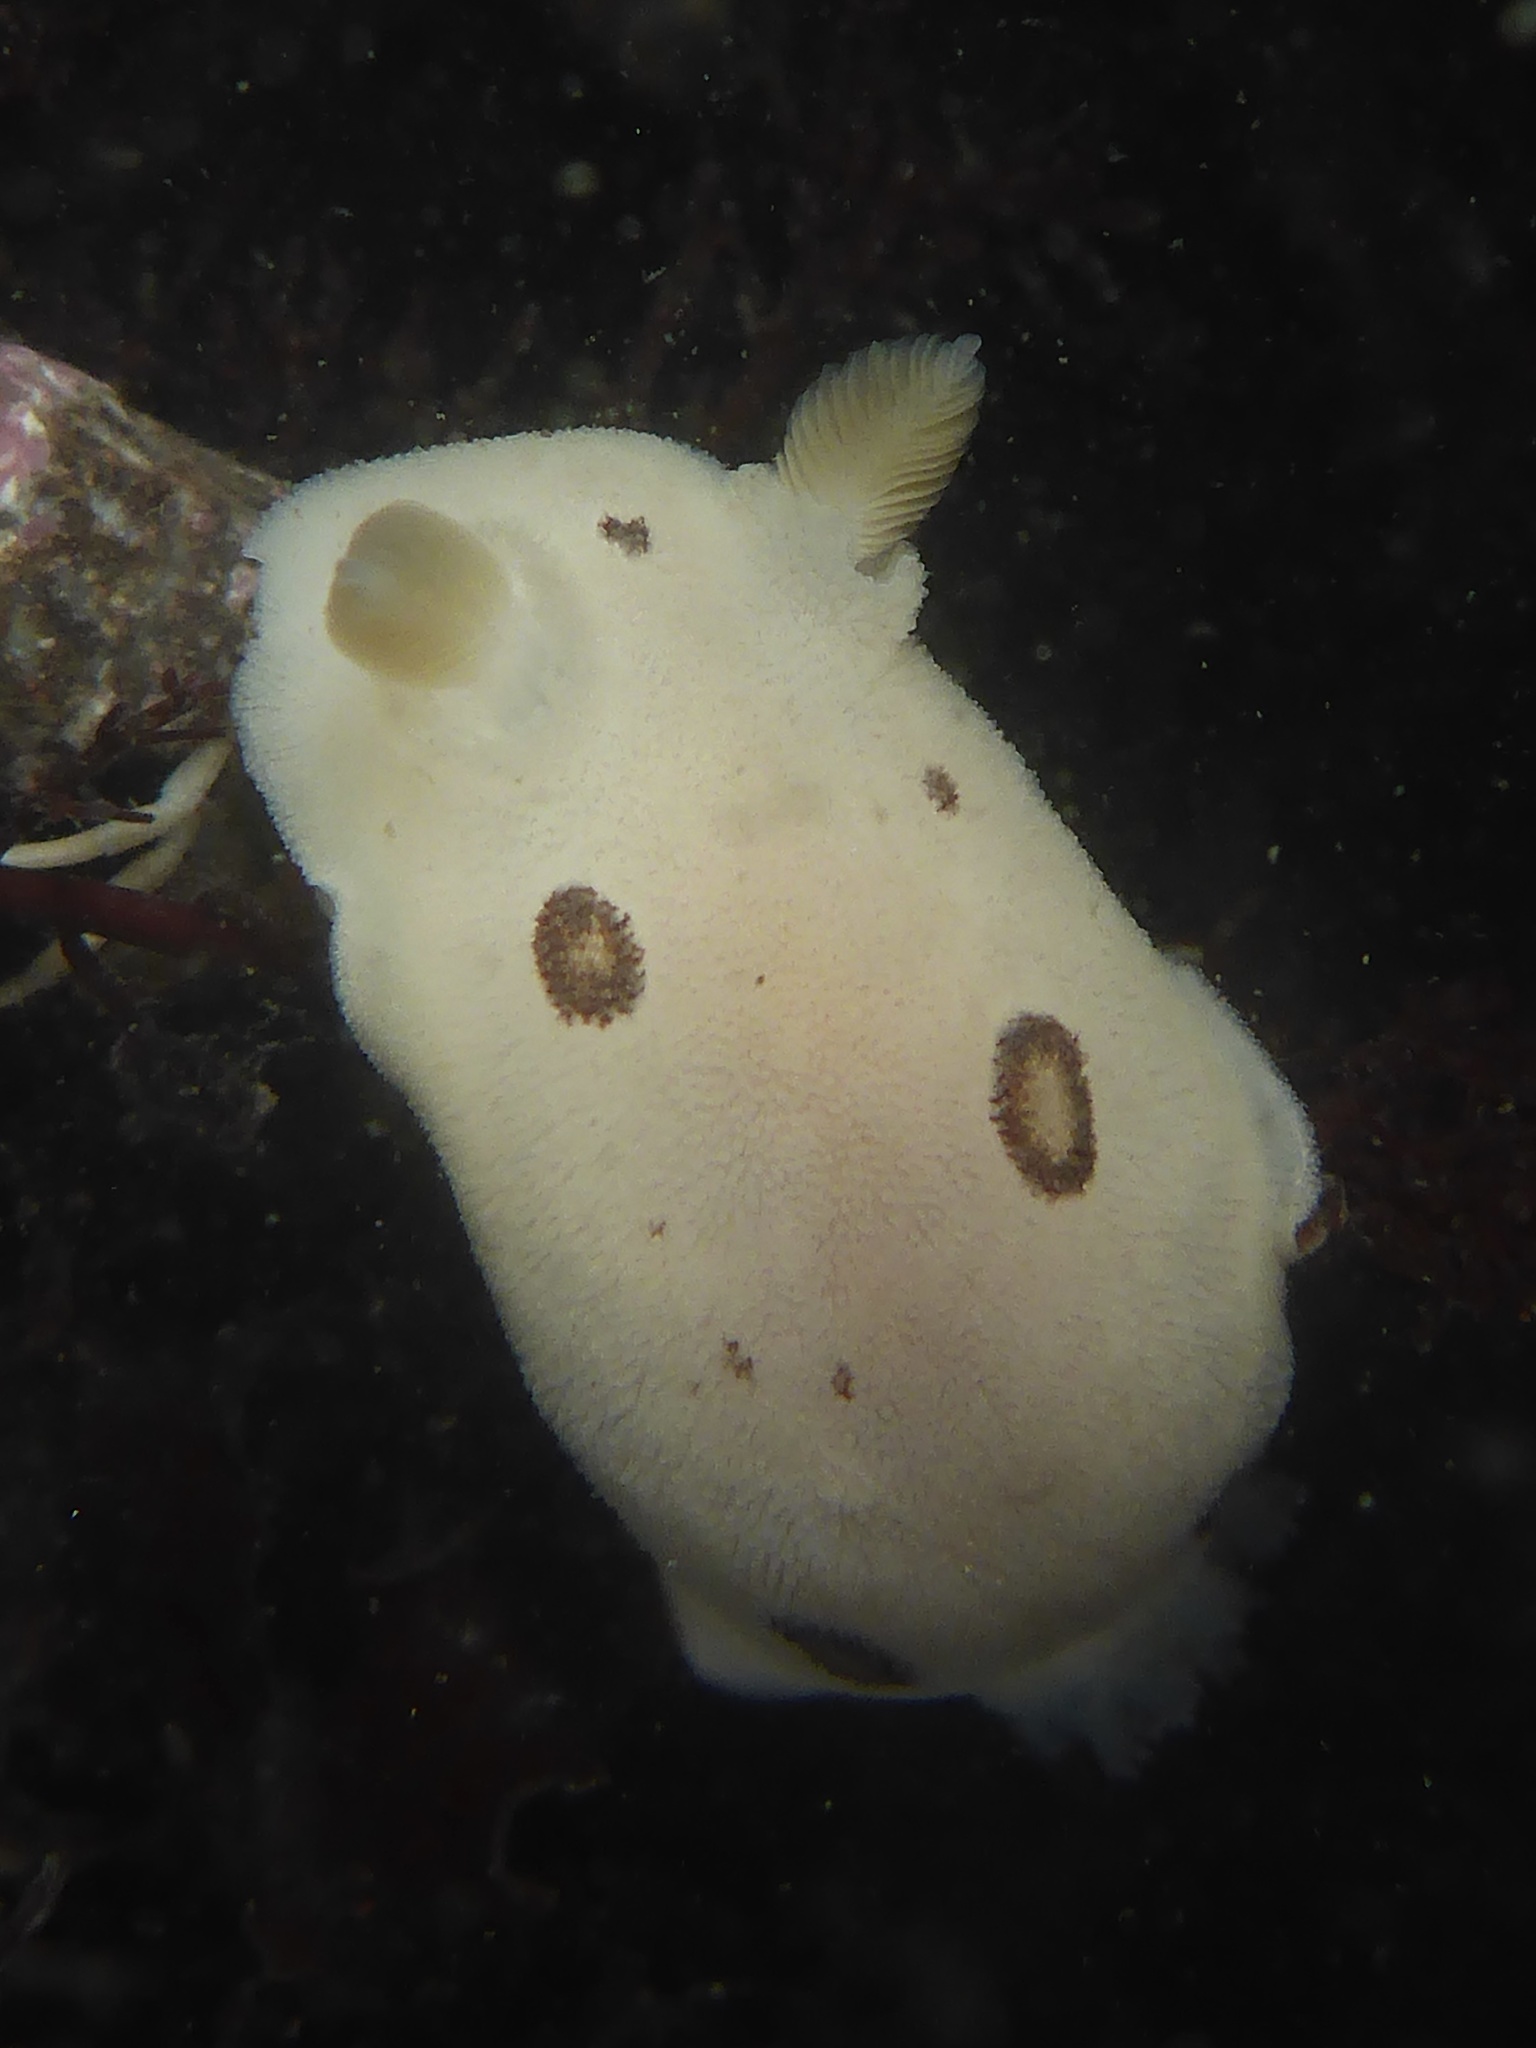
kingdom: Animalia
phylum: Mollusca
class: Gastropoda
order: Nudibranchia
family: Discodorididae
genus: Diaulula
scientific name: Diaulula sandiegensis
